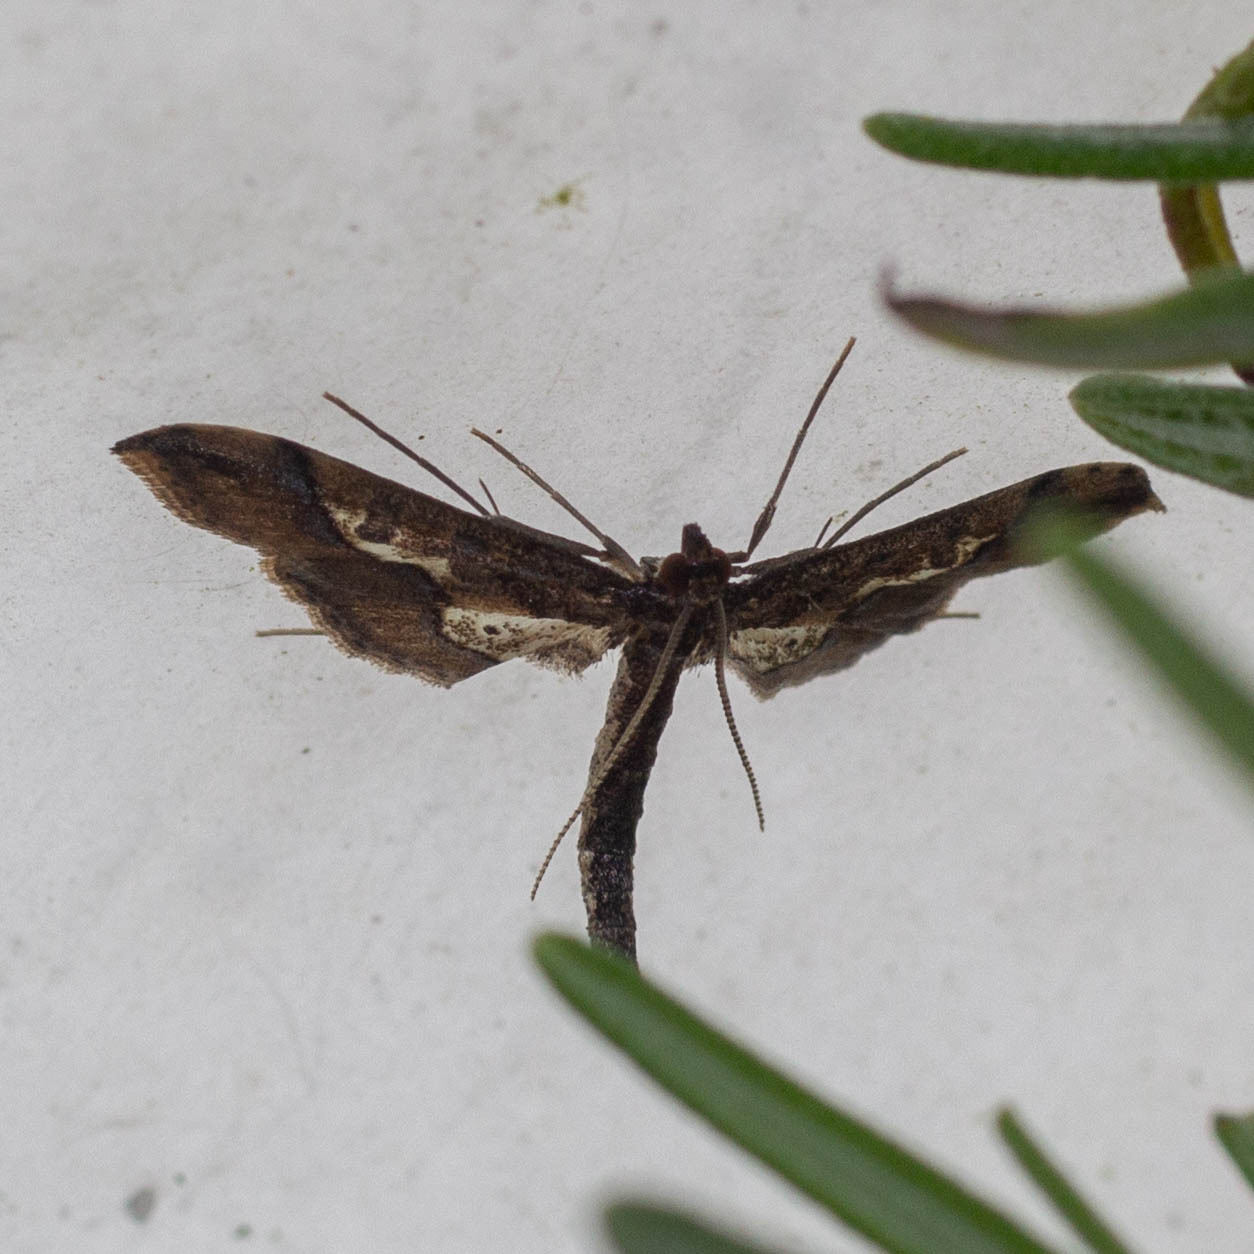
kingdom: Animalia
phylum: Arthropoda
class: Insecta
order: Lepidoptera
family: Crambidae
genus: Hydriris
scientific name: Hydriris ornatalis
